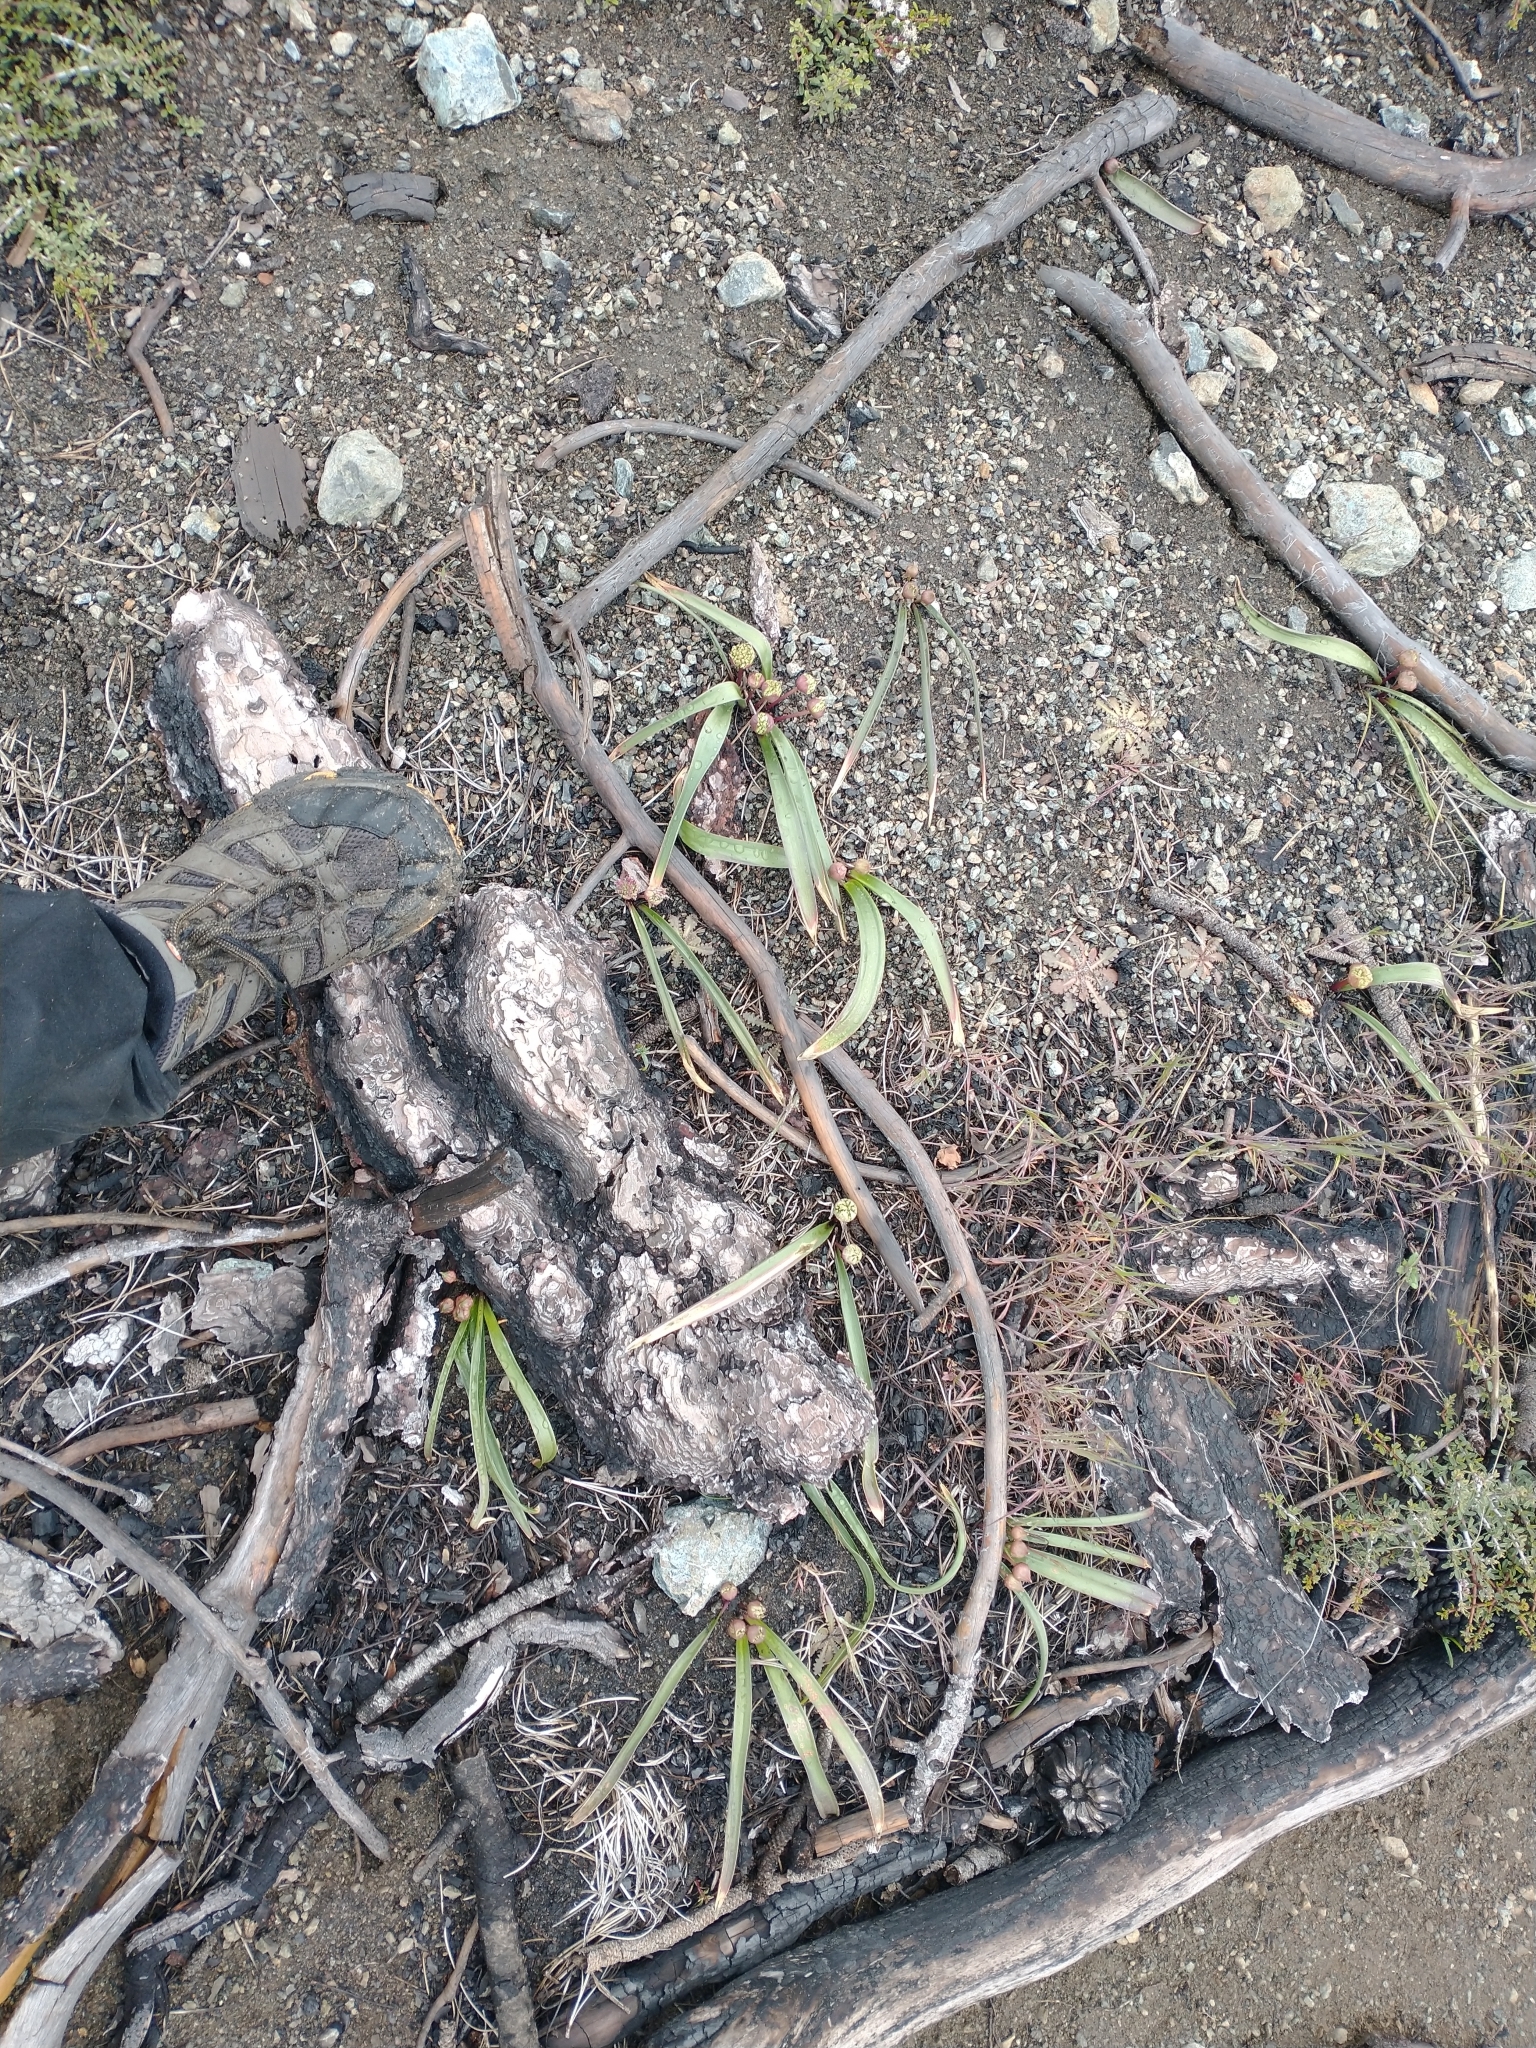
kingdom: Plantae
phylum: Tracheophyta
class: Liliopsida
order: Asparagales
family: Amaryllidaceae
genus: Allium
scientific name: Allium hoffmanii
